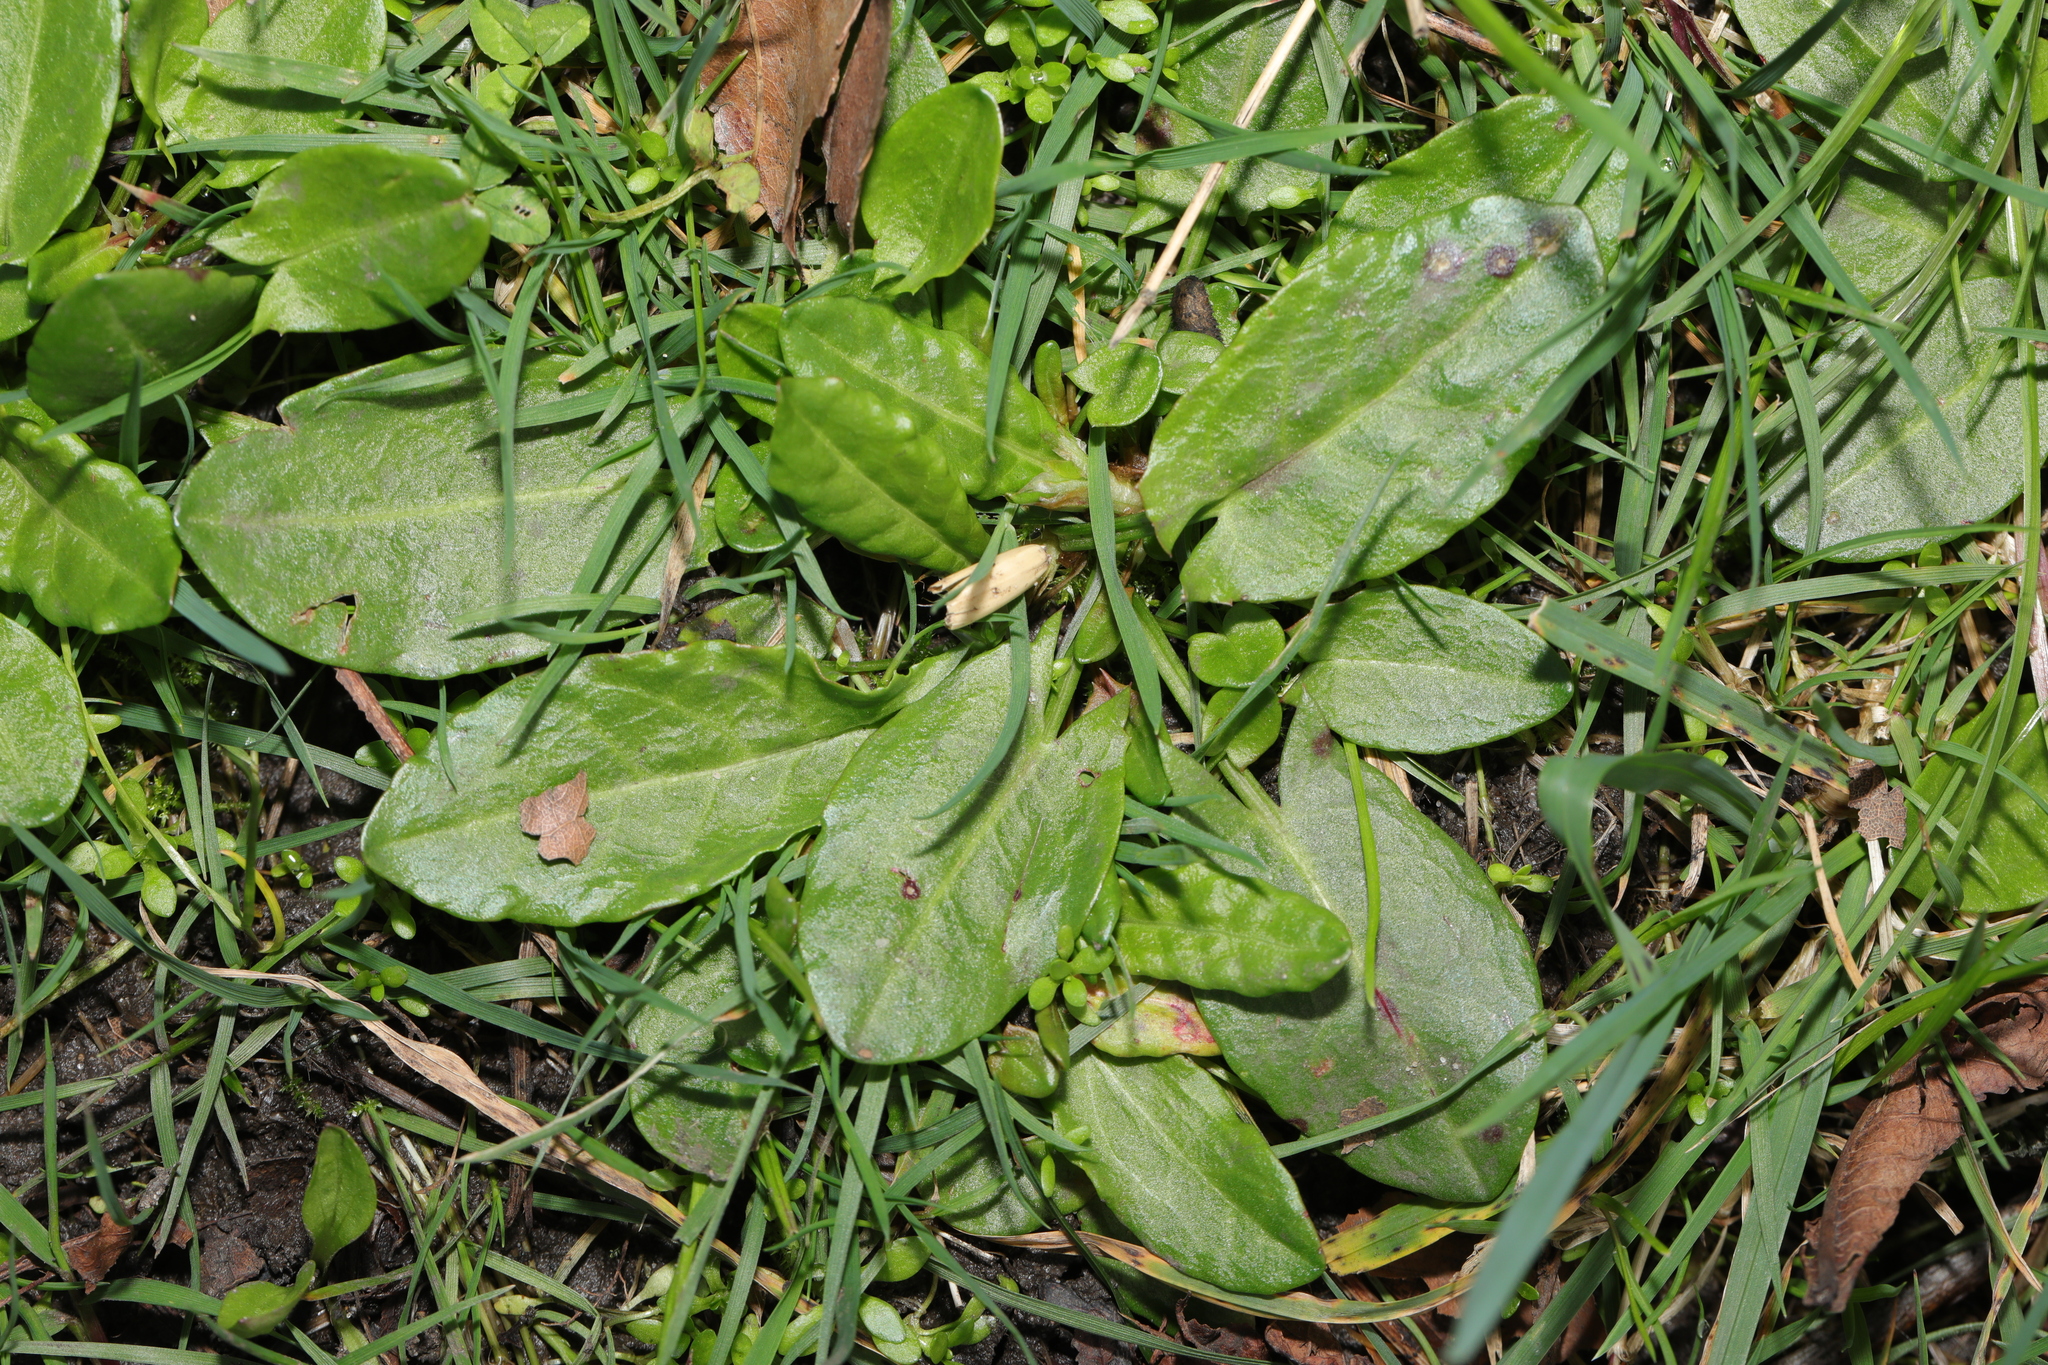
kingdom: Plantae
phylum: Tracheophyta
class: Magnoliopsida
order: Caryophyllales
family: Polygonaceae
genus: Rumex
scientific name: Rumex acetosa
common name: Garden sorrel
